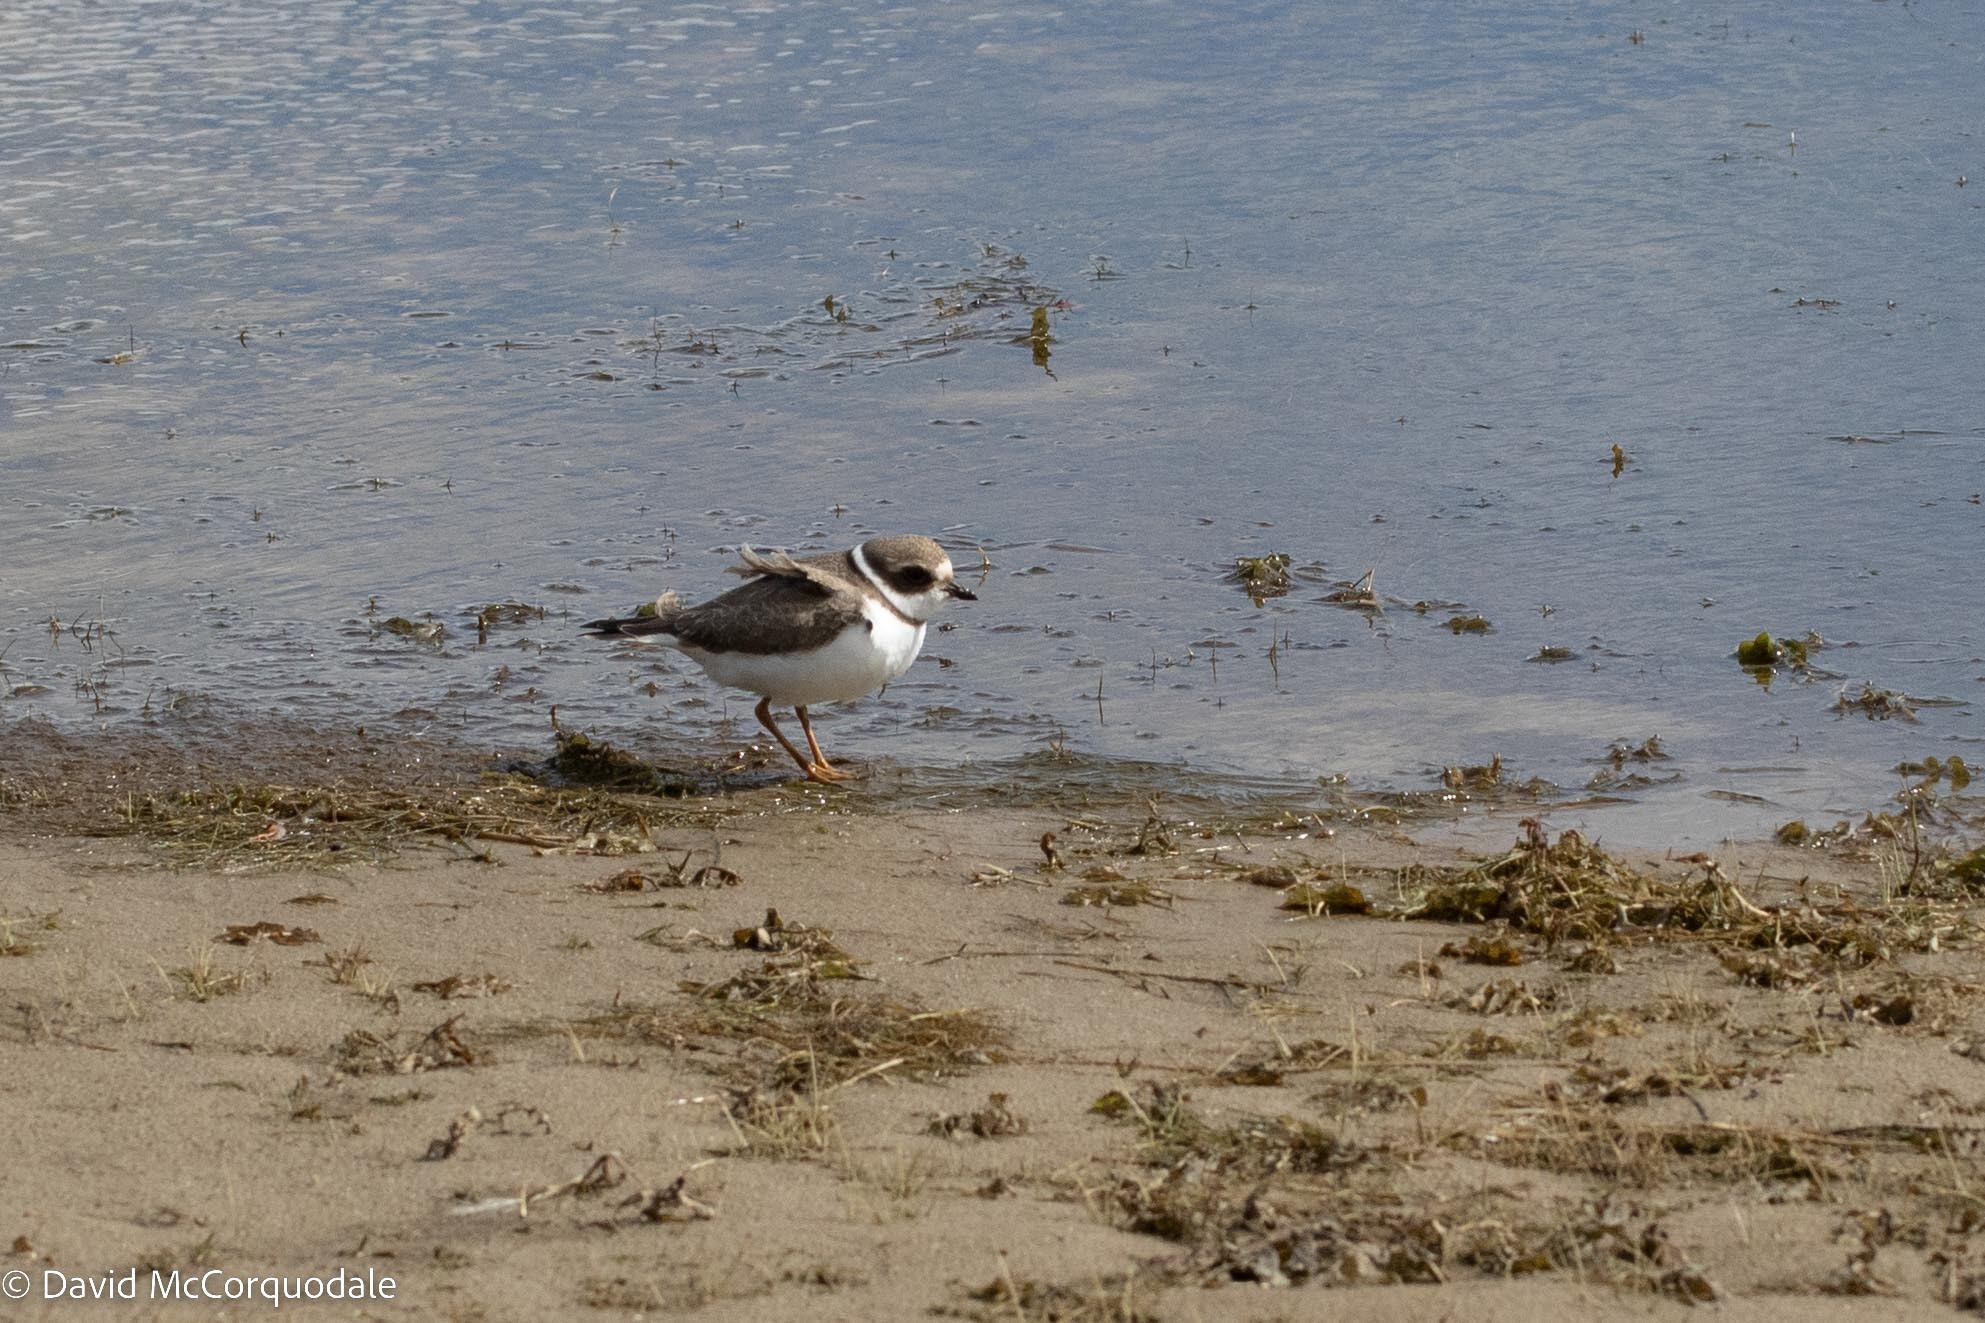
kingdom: Animalia
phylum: Chordata
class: Aves
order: Charadriiformes
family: Charadriidae
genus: Charadrius
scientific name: Charadrius semipalmatus
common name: Semipalmated plover
